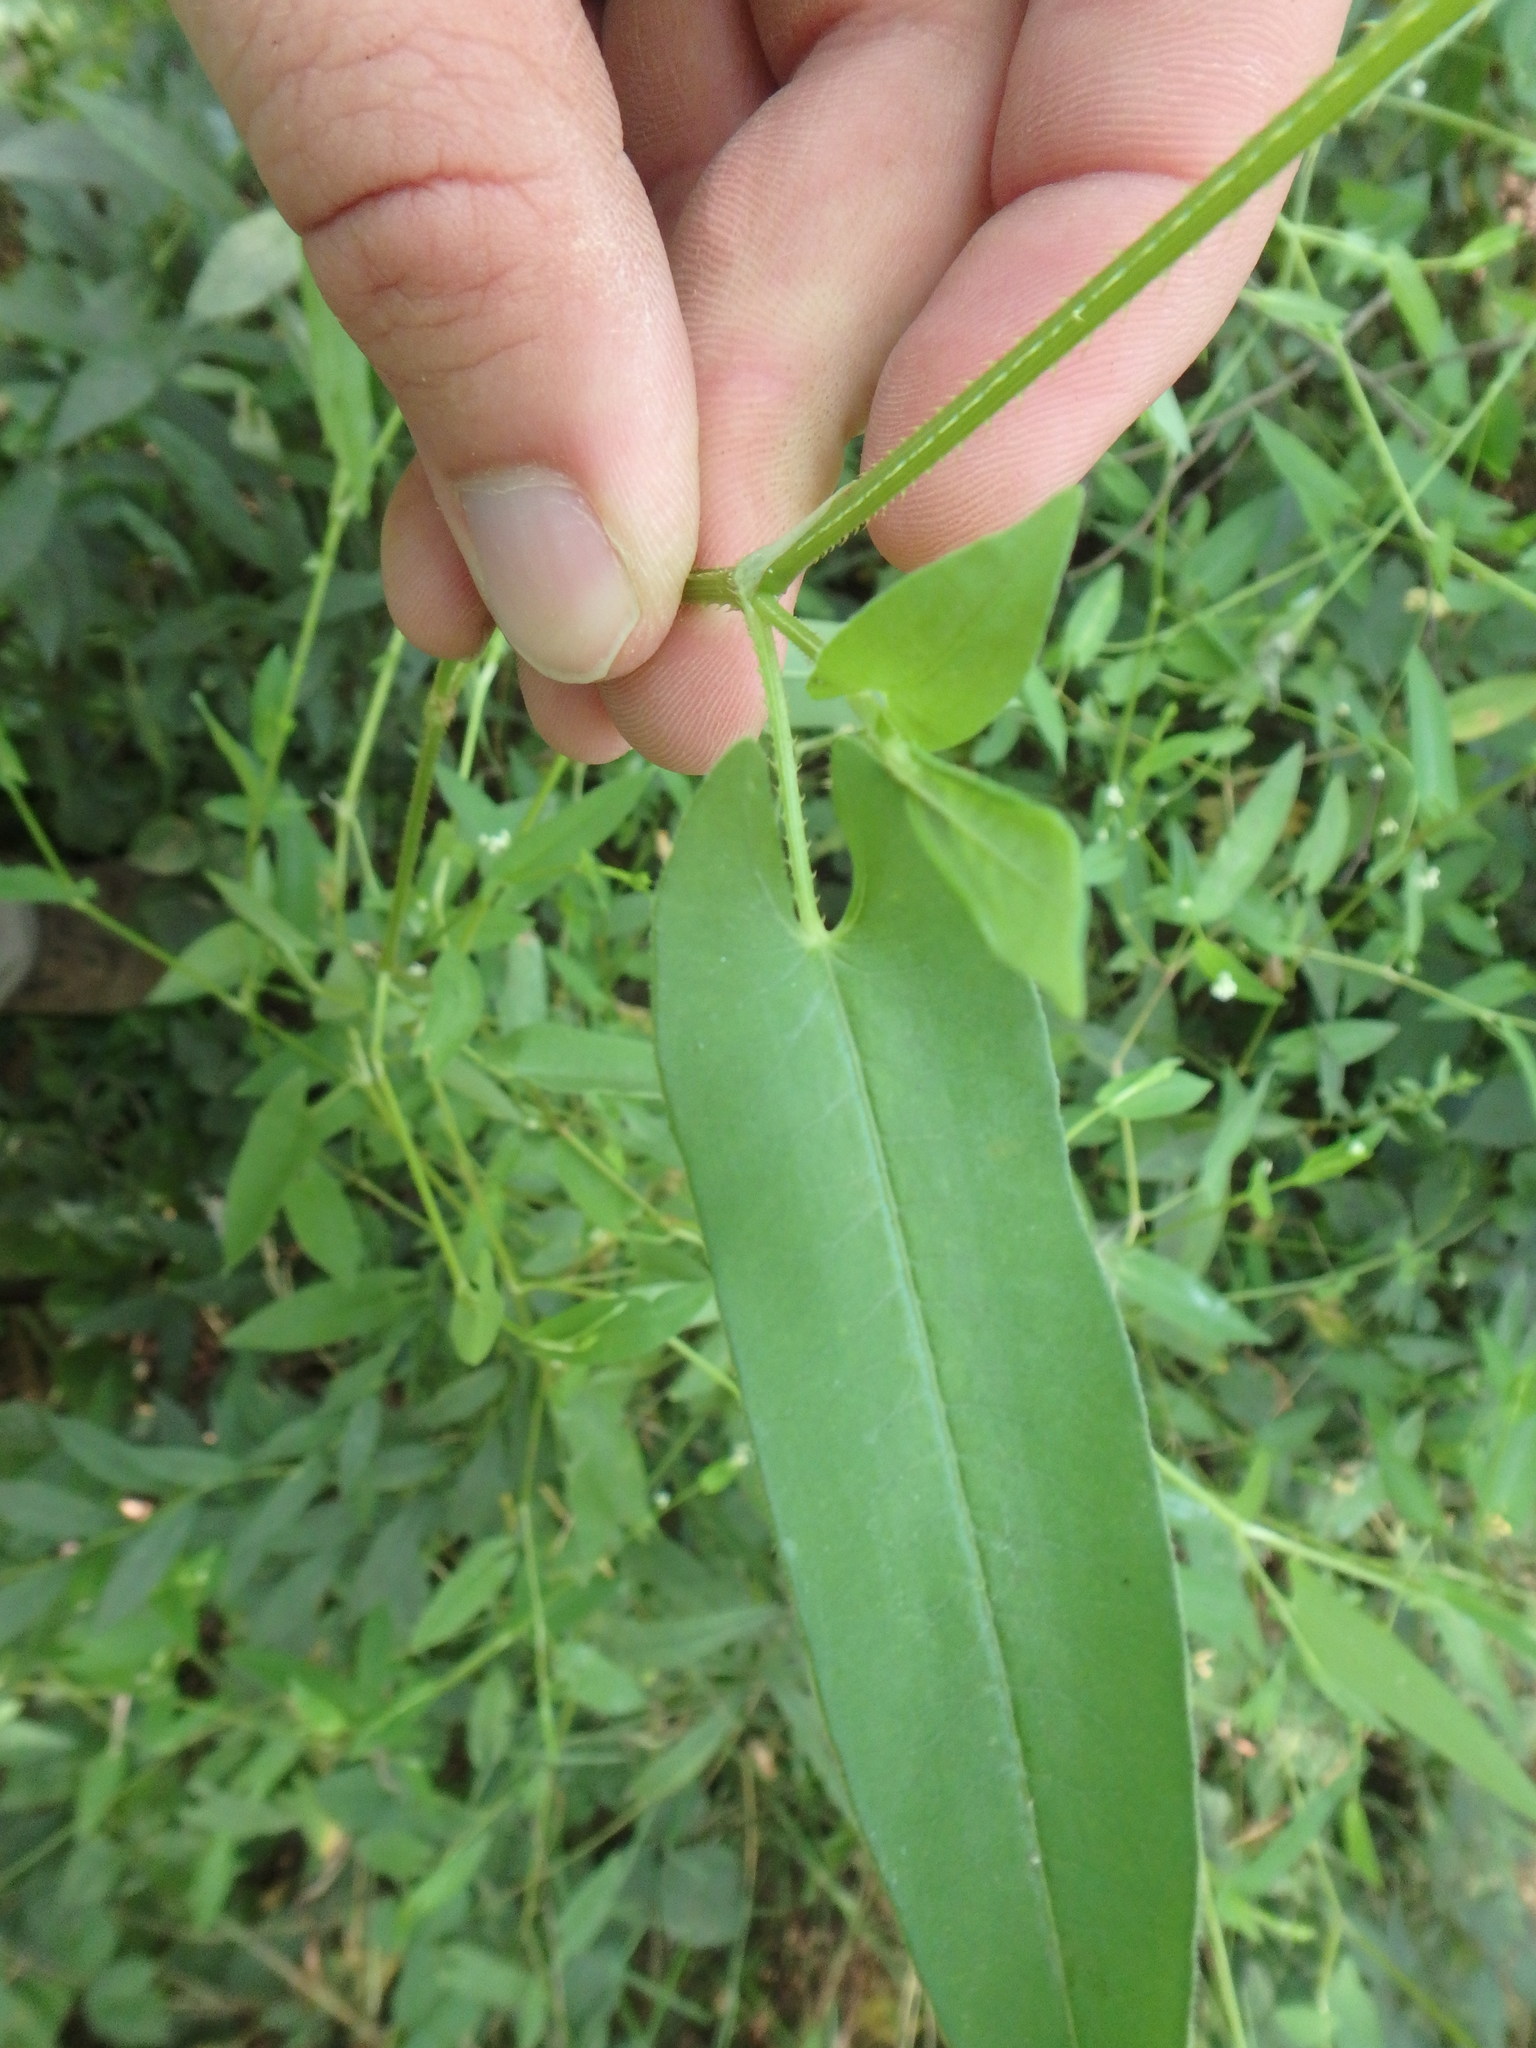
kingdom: Plantae
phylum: Tracheophyta
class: Magnoliopsida
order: Caryophyllales
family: Polygonaceae
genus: Persicaria
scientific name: Persicaria sagittata
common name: American tearthumb
